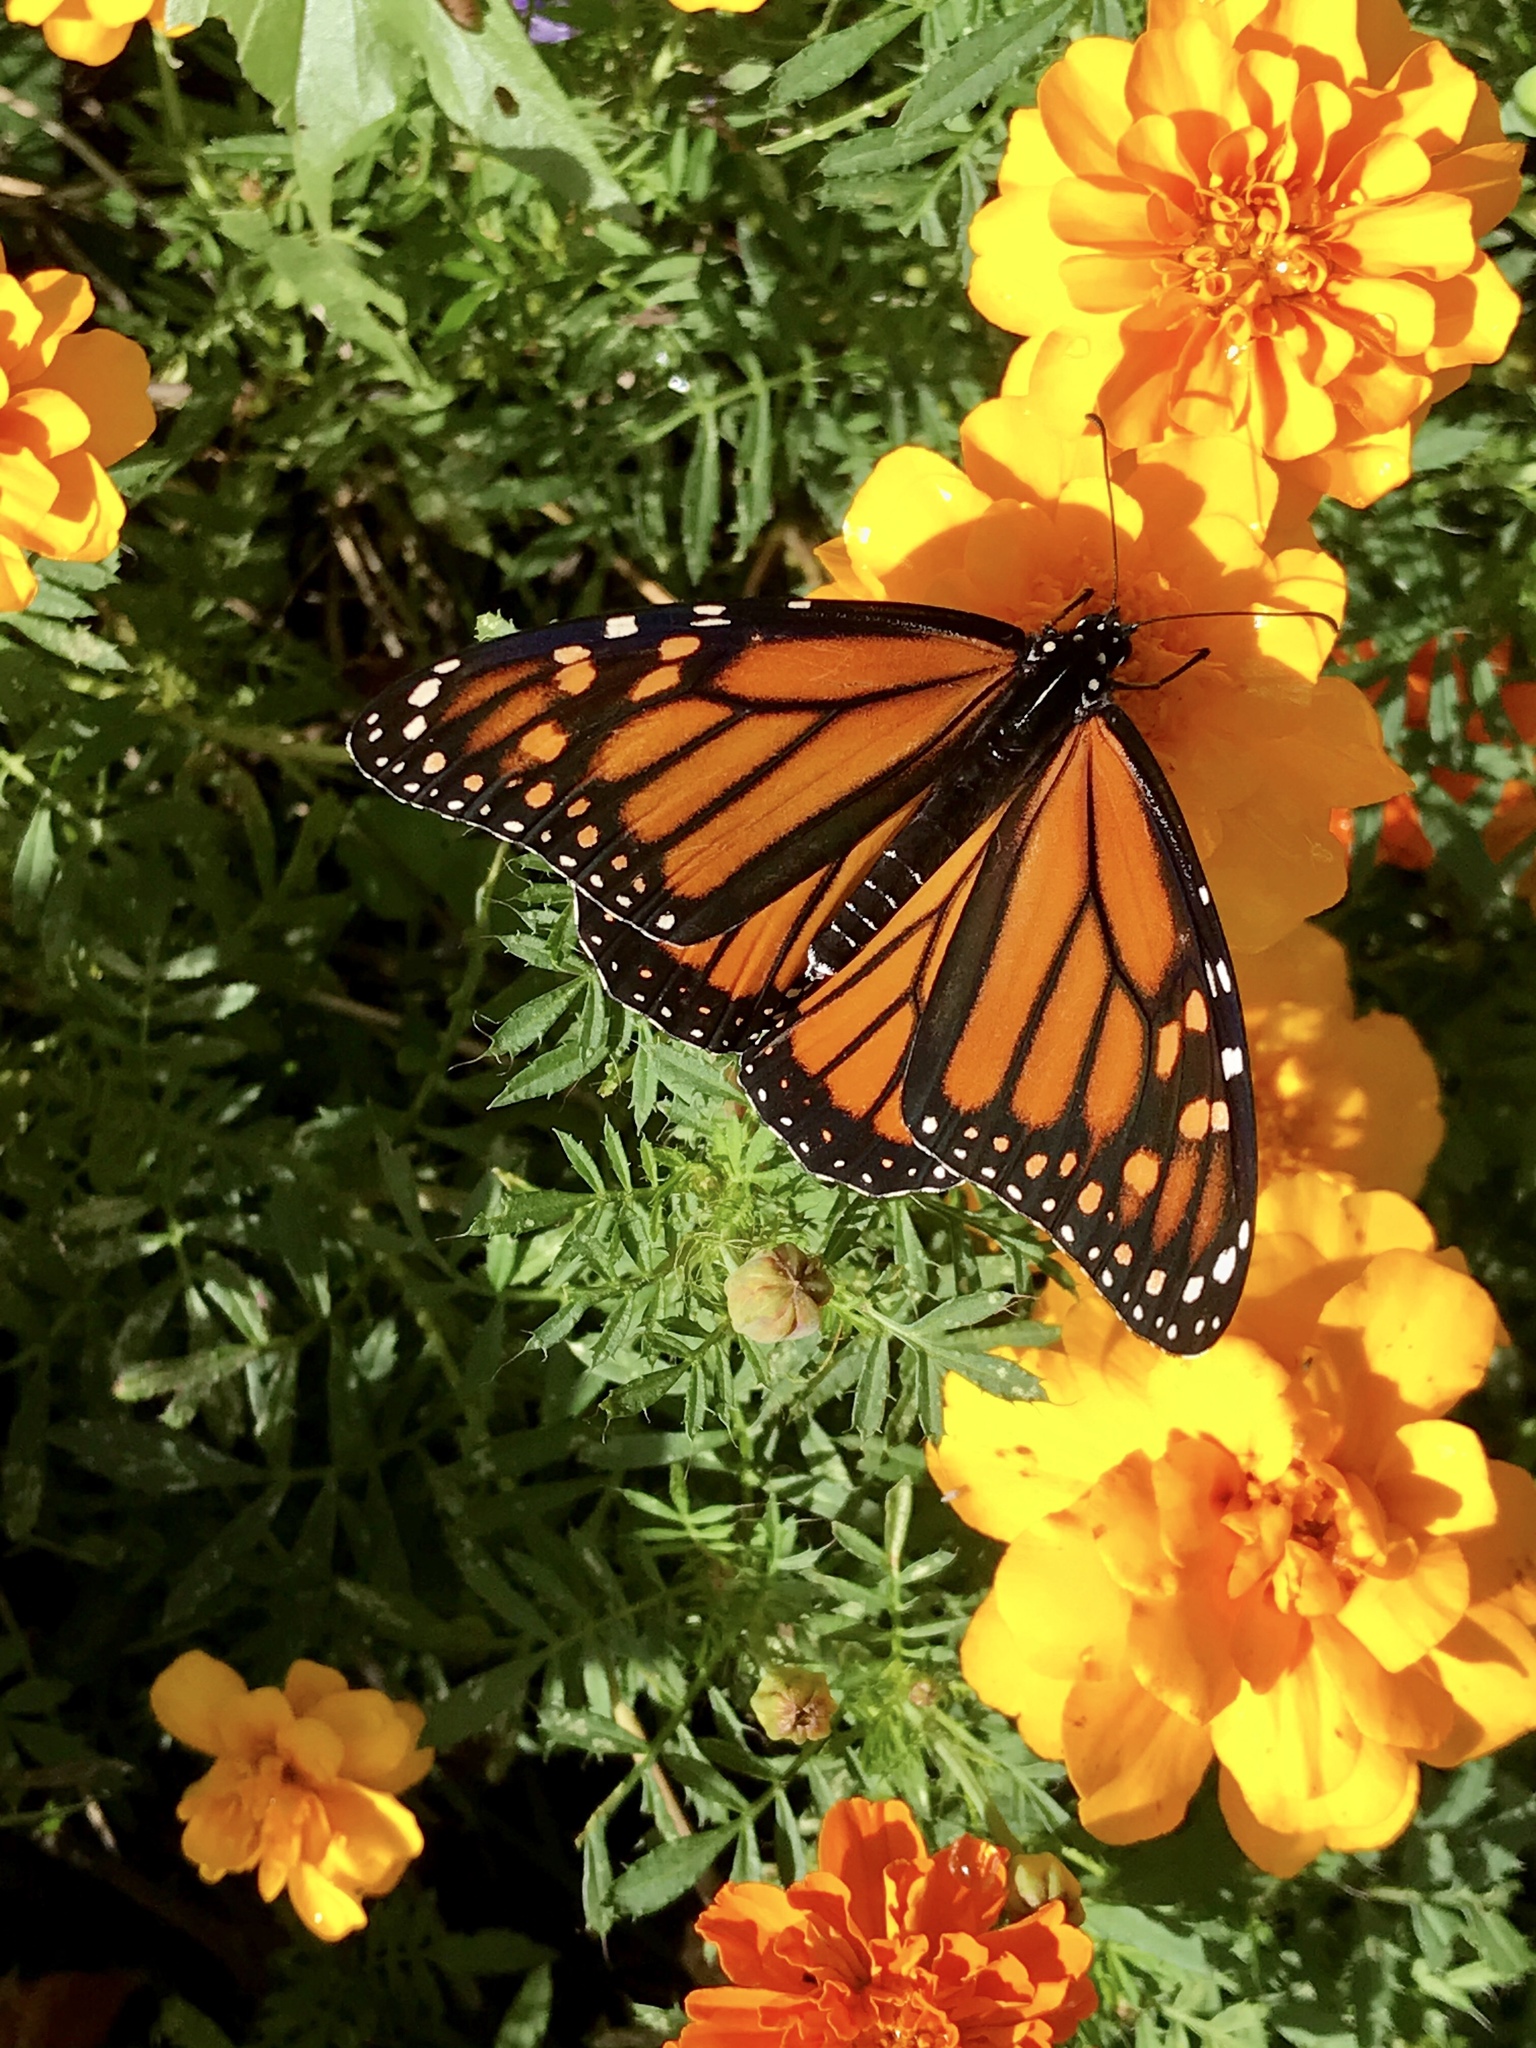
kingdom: Animalia
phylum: Arthropoda
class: Insecta
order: Lepidoptera
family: Nymphalidae
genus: Danaus
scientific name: Danaus plexippus
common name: Monarch
